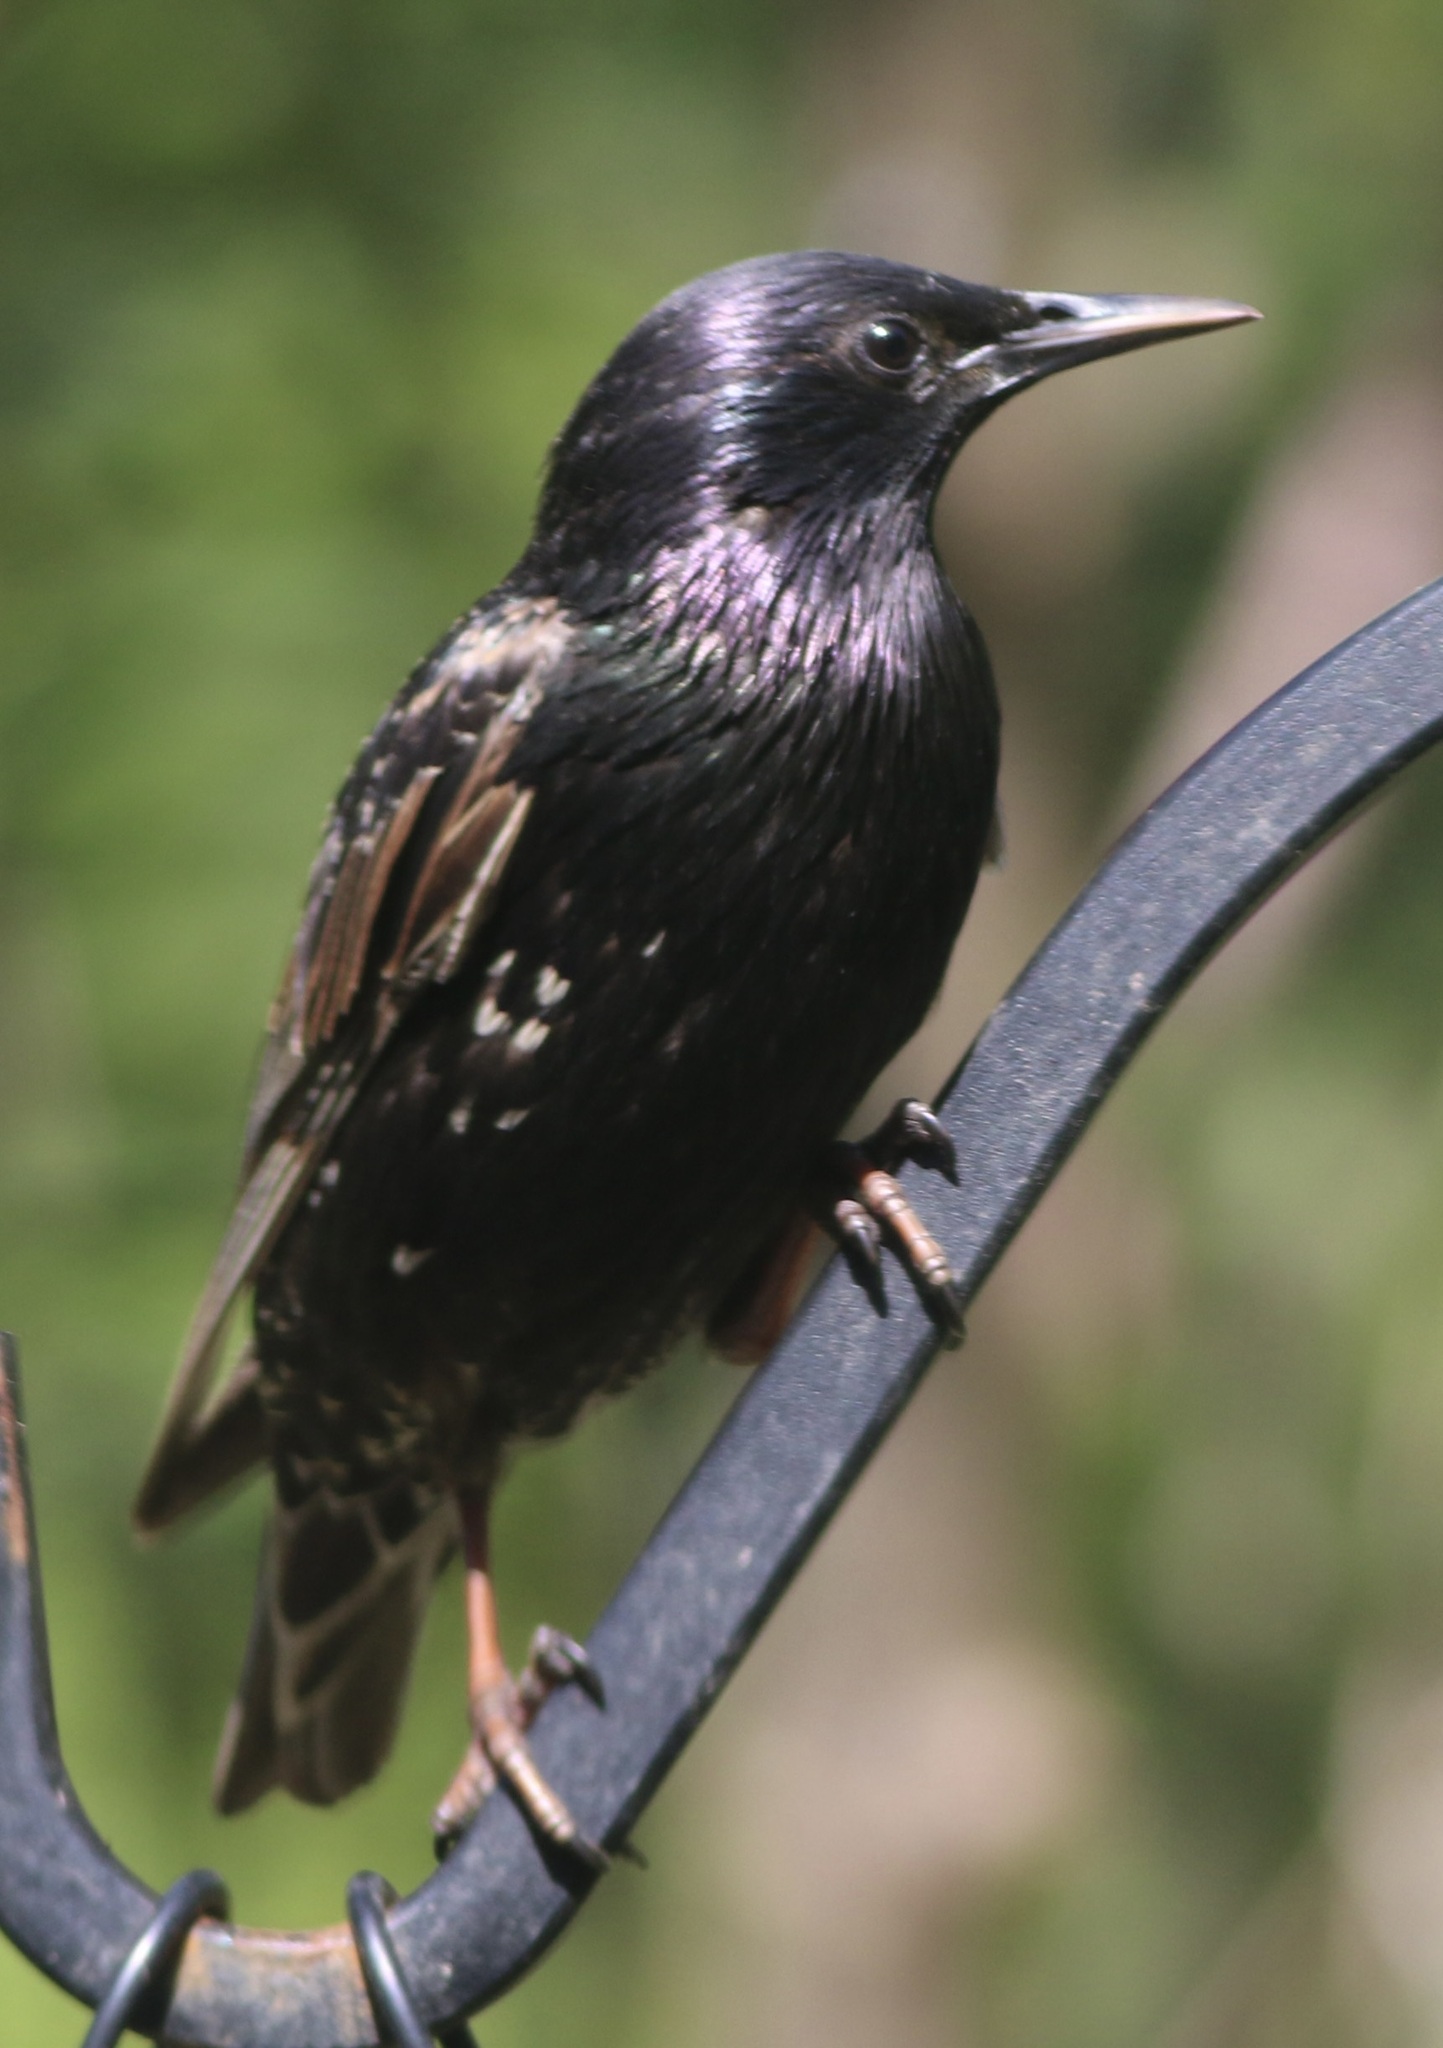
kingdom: Animalia
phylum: Chordata
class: Aves
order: Passeriformes
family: Sturnidae
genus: Sturnus
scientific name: Sturnus vulgaris
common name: Common starling
